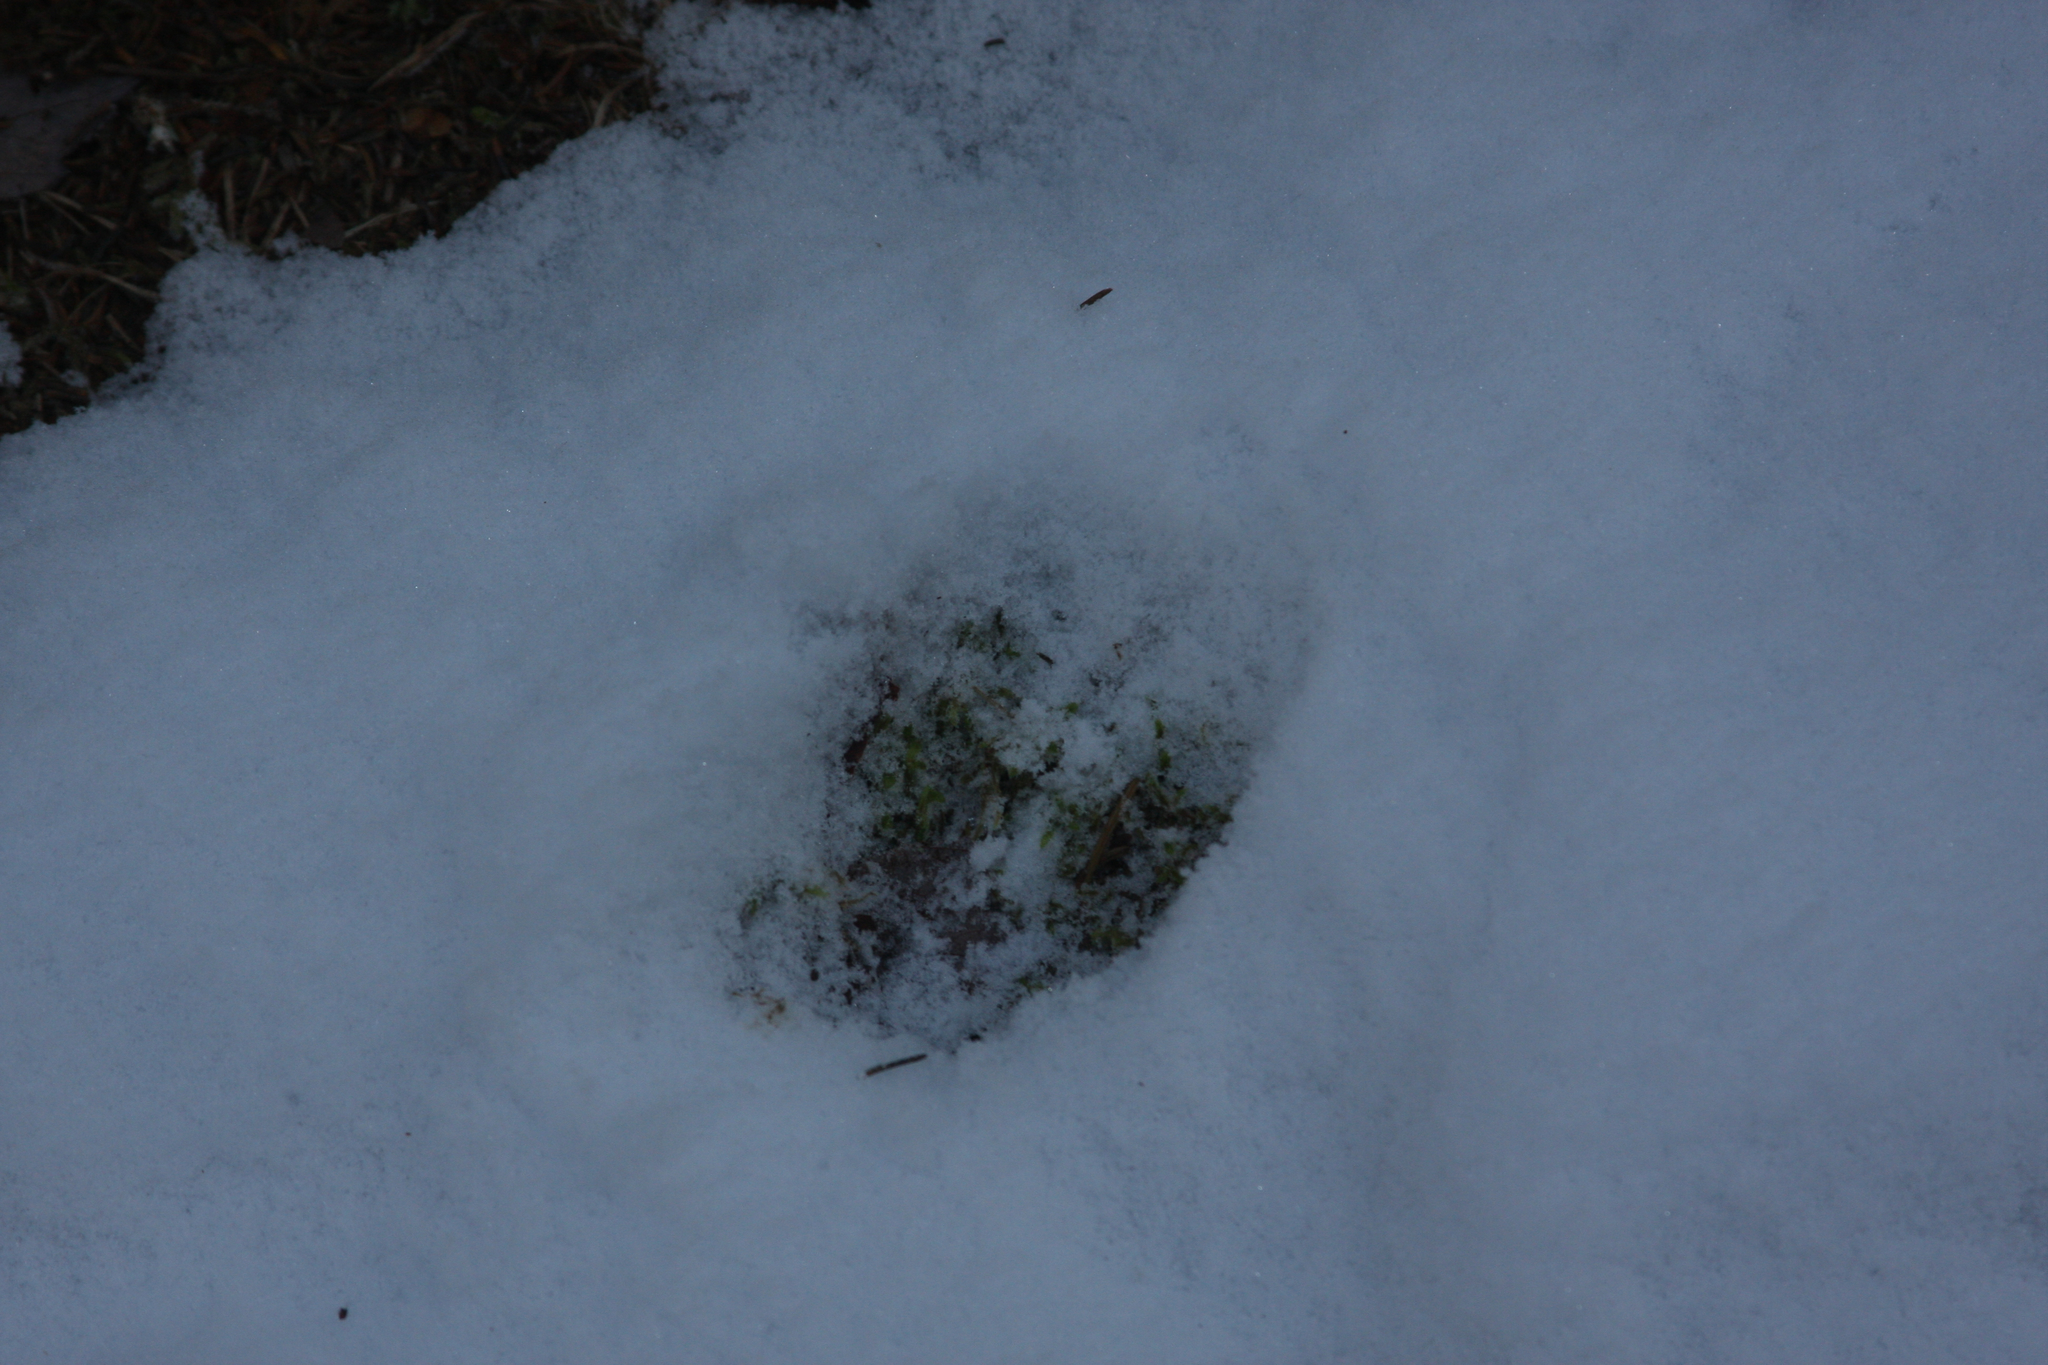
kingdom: Animalia
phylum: Chordata
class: Mammalia
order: Artiodactyla
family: Cervidae
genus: Odocoileus
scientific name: Odocoileus virginianus
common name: White-tailed deer
